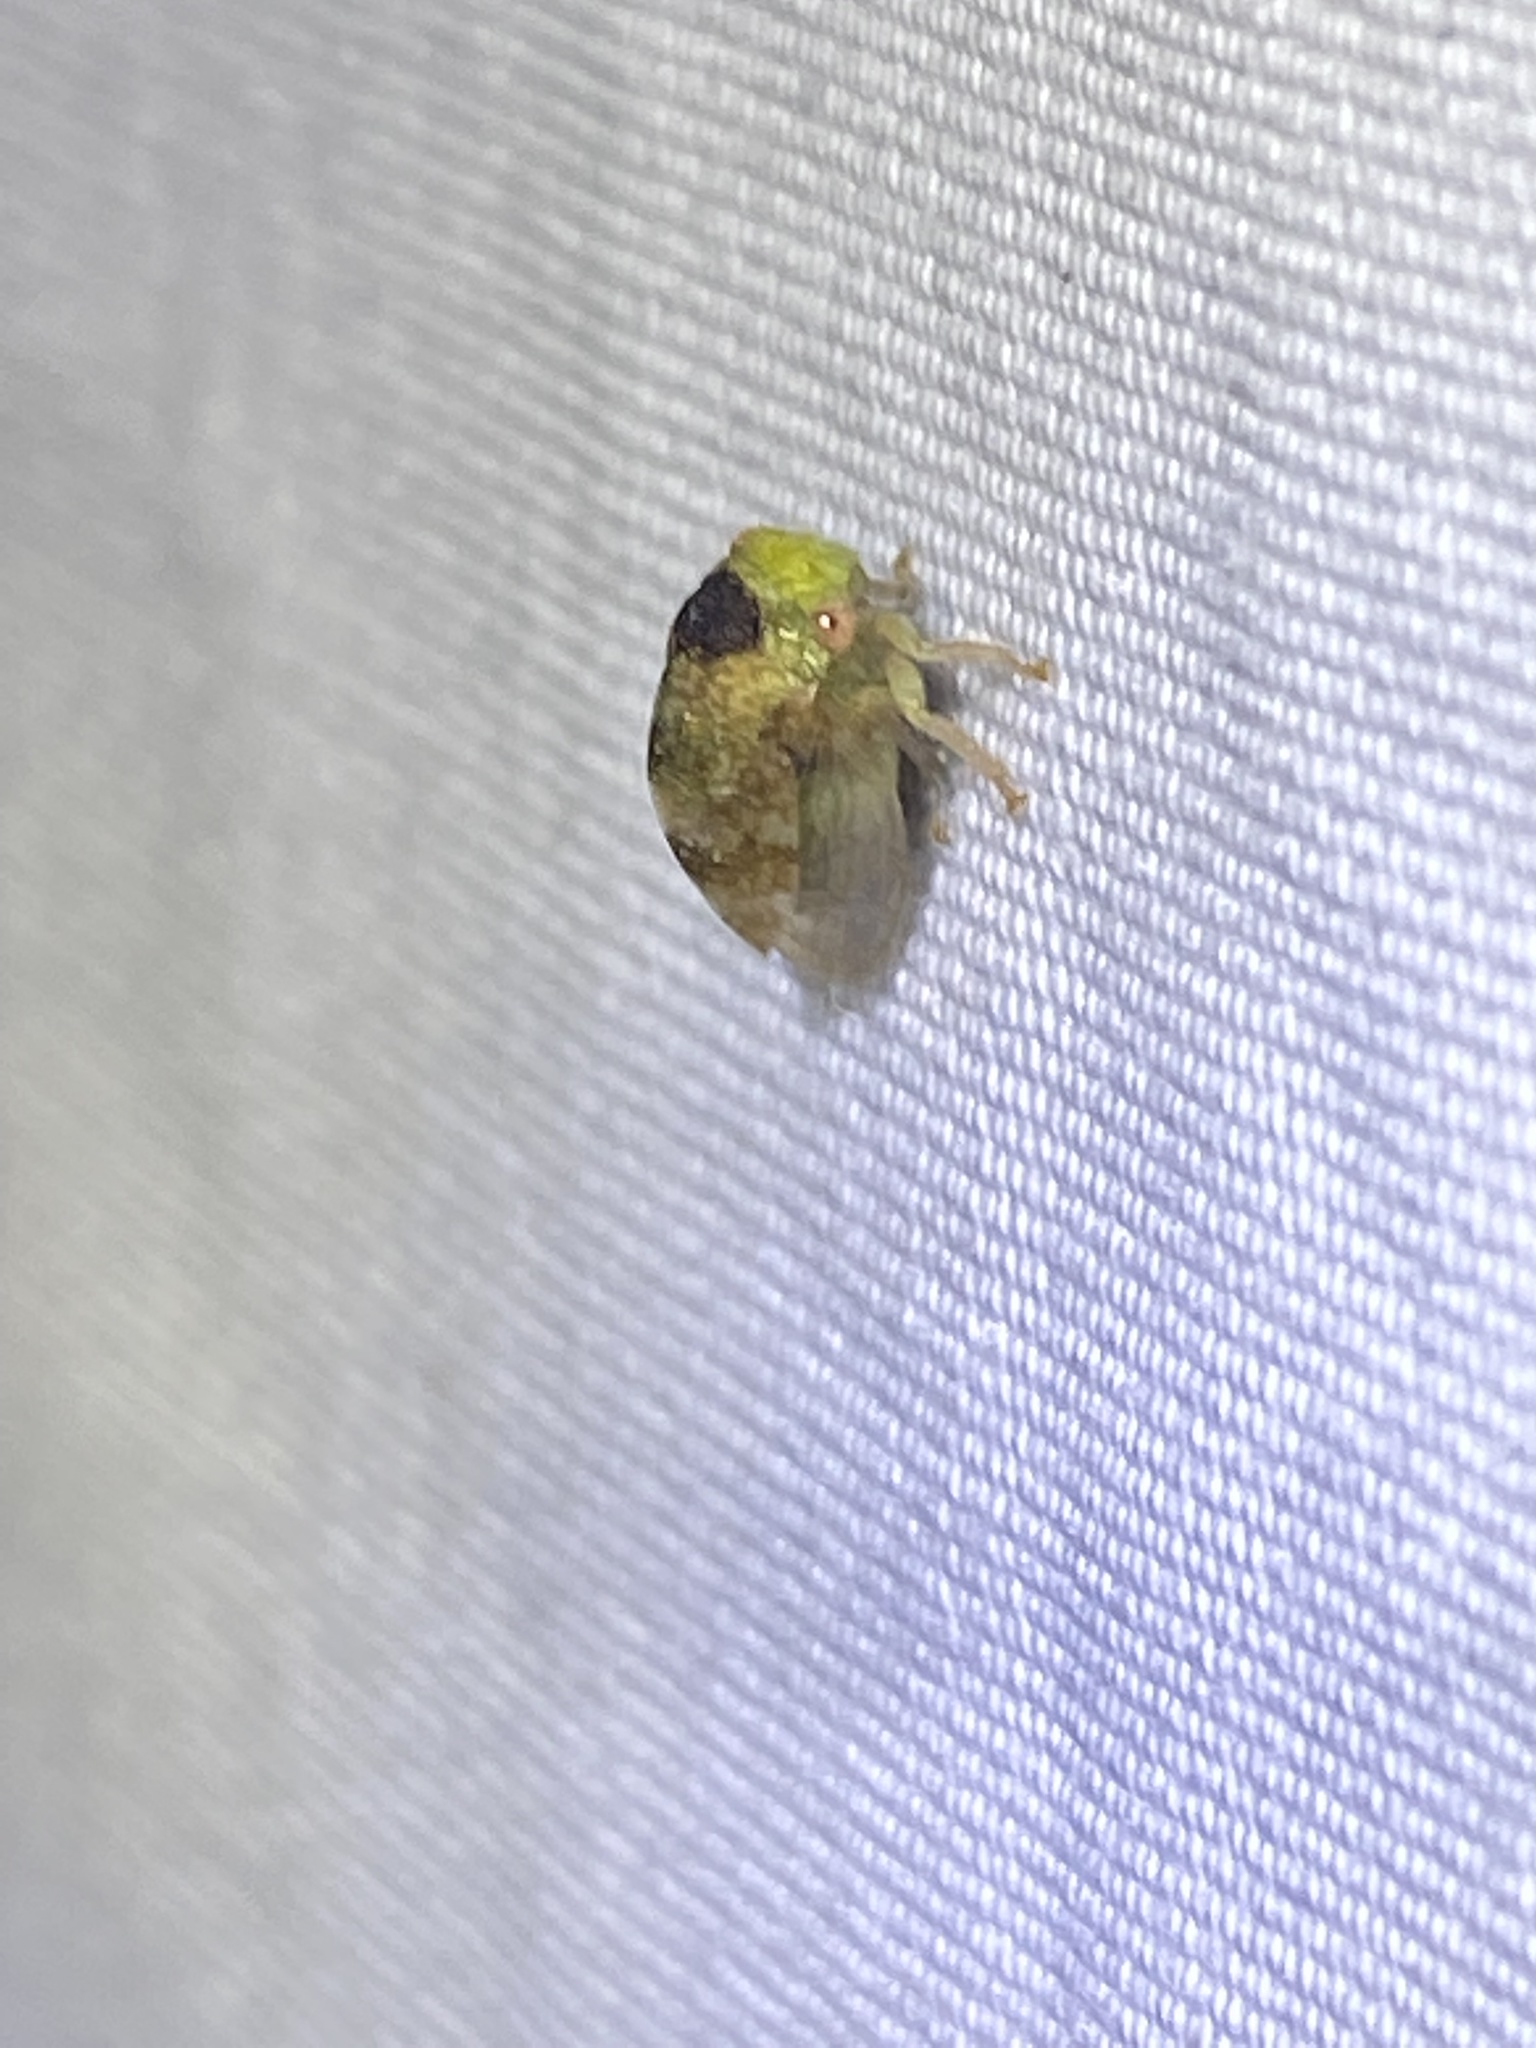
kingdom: Animalia
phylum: Arthropoda
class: Insecta
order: Hemiptera
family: Membracidae
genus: Cyrtolobus
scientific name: Cyrtolobus maculifrontis
